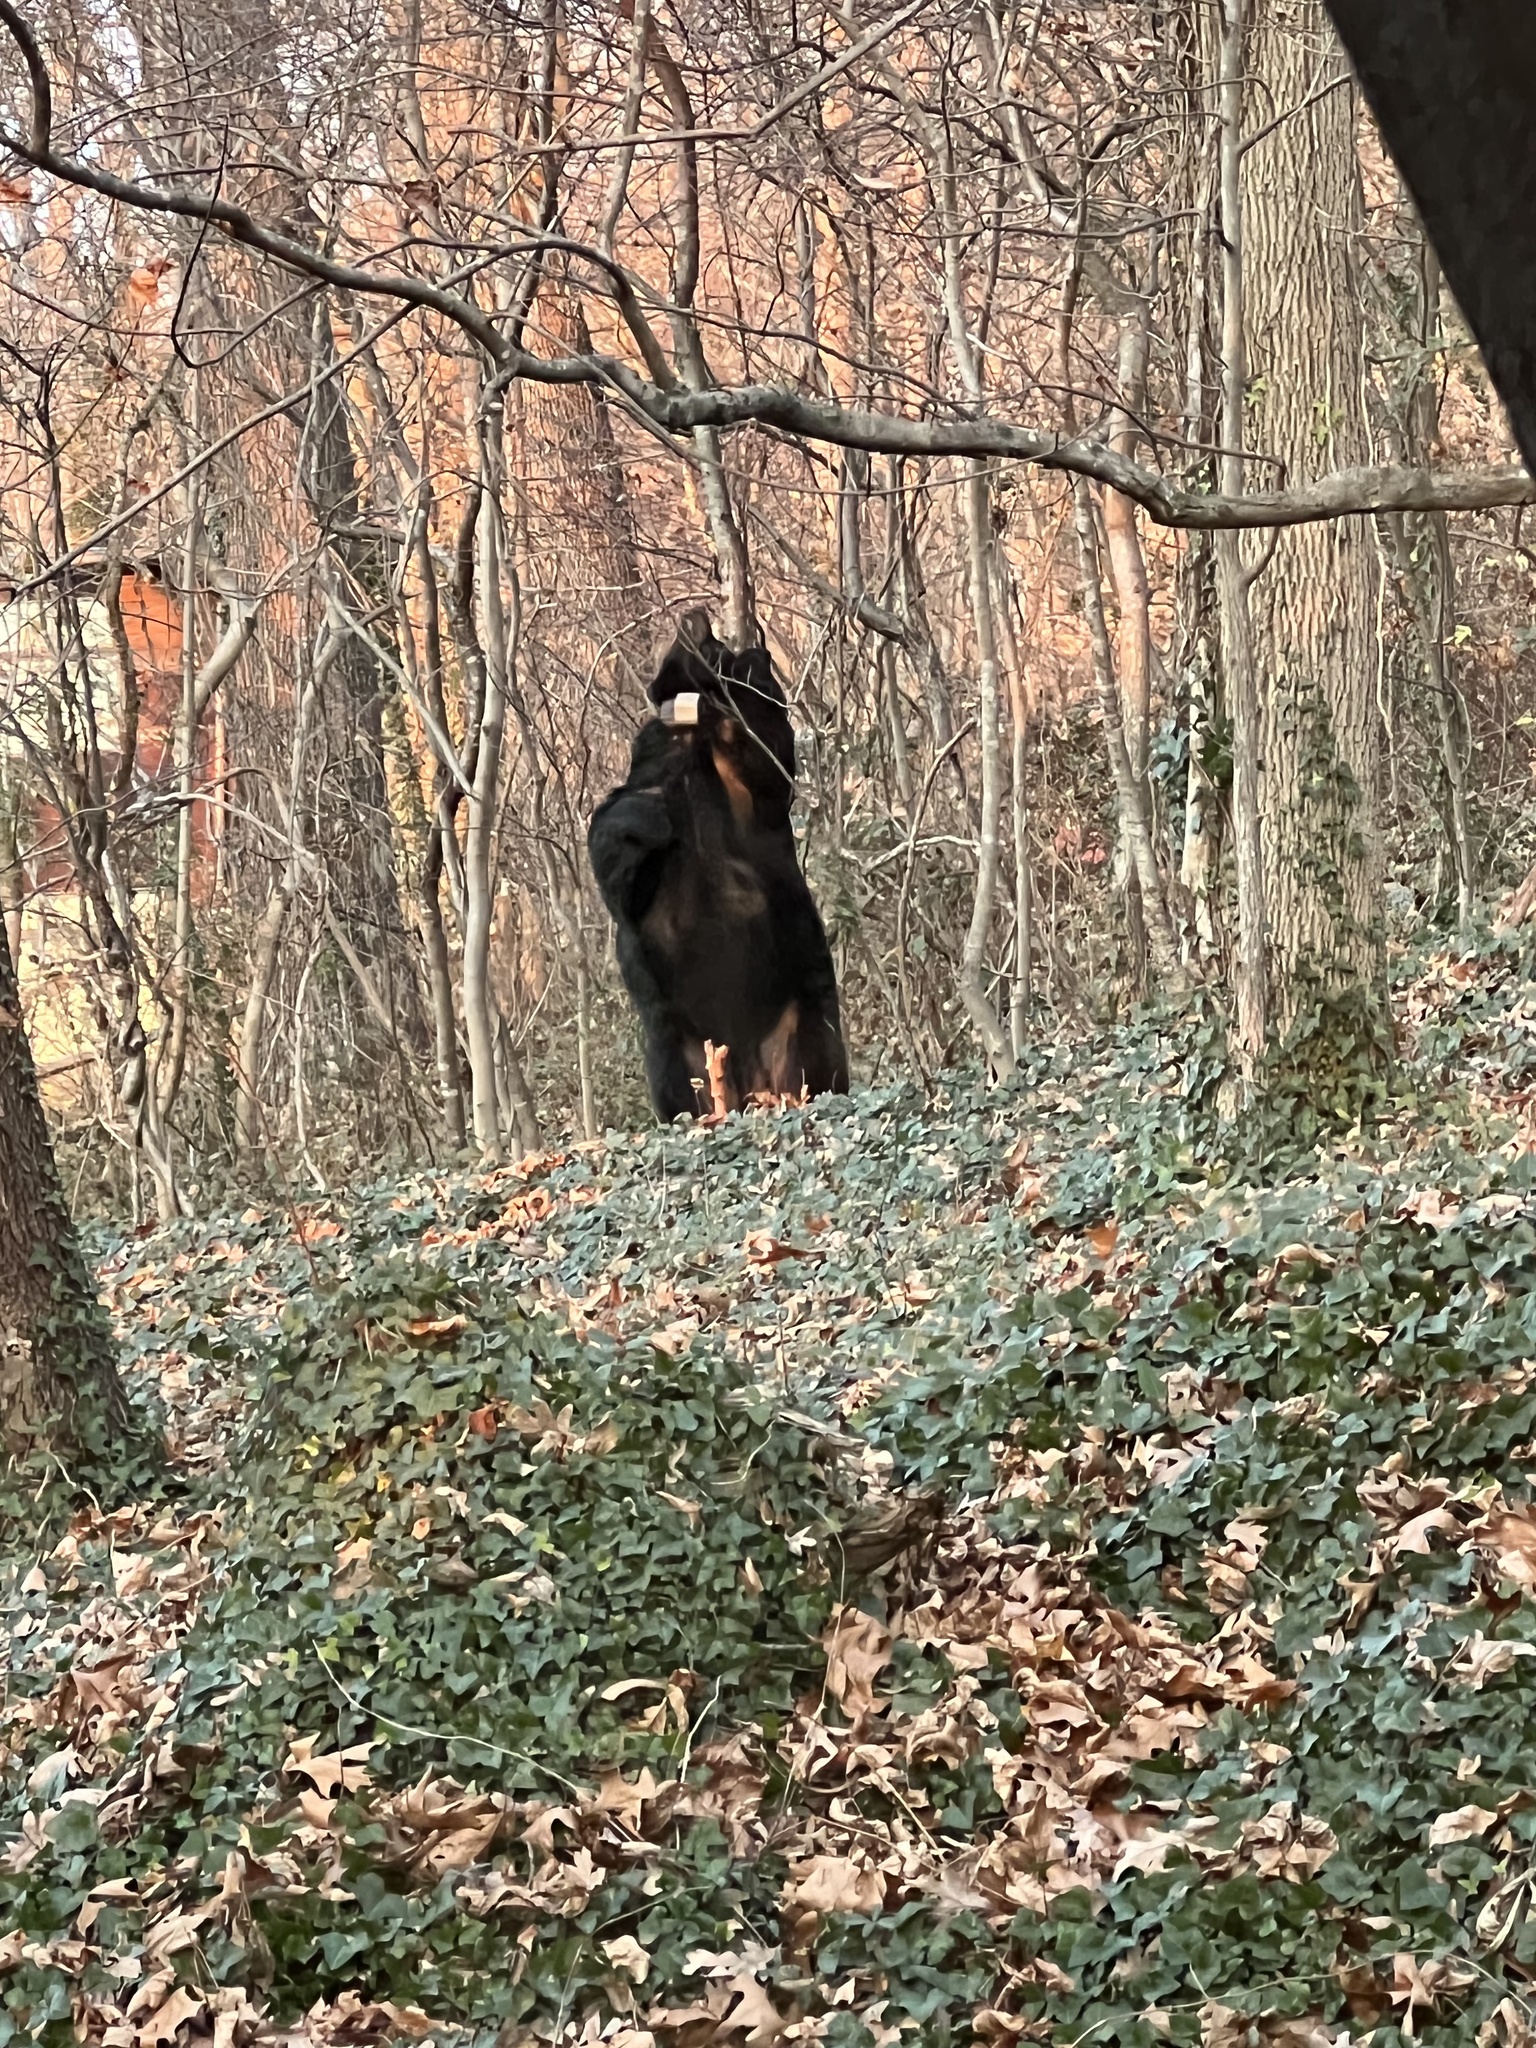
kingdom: Animalia
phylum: Chordata
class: Mammalia
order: Carnivora
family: Ursidae
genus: Ursus
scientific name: Ursus americanus
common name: American black bear
